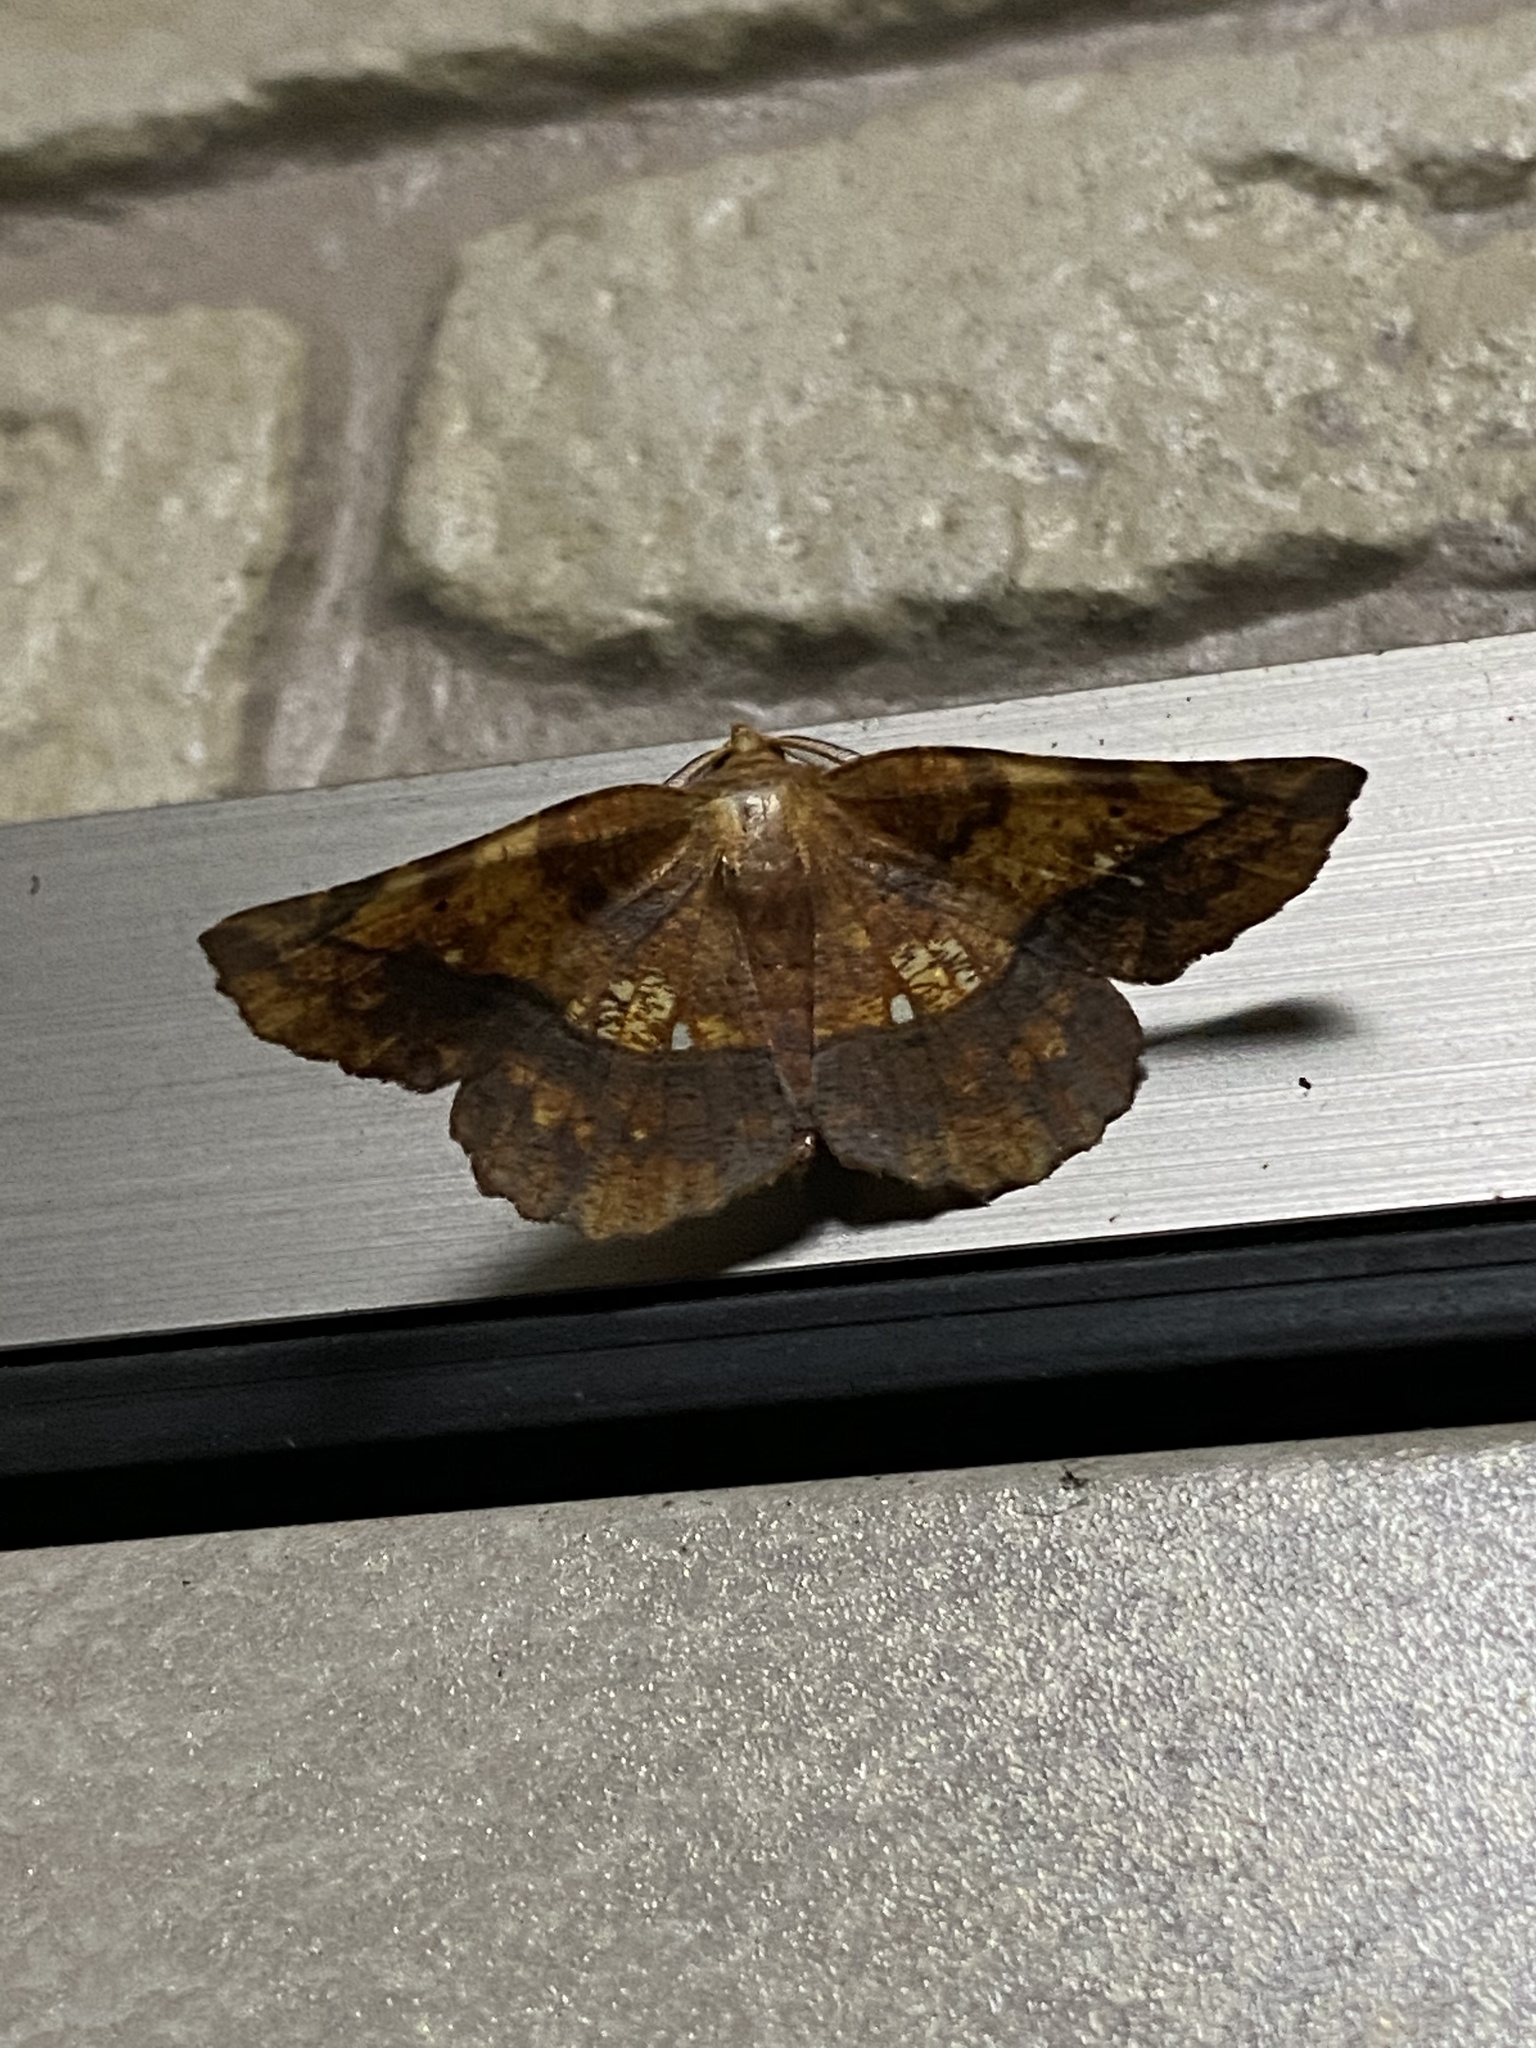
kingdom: Animalia
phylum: Arthropoda
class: Insecta
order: Lepidoptera
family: Geometridae
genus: Garaeus
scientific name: Garaeus specularis
